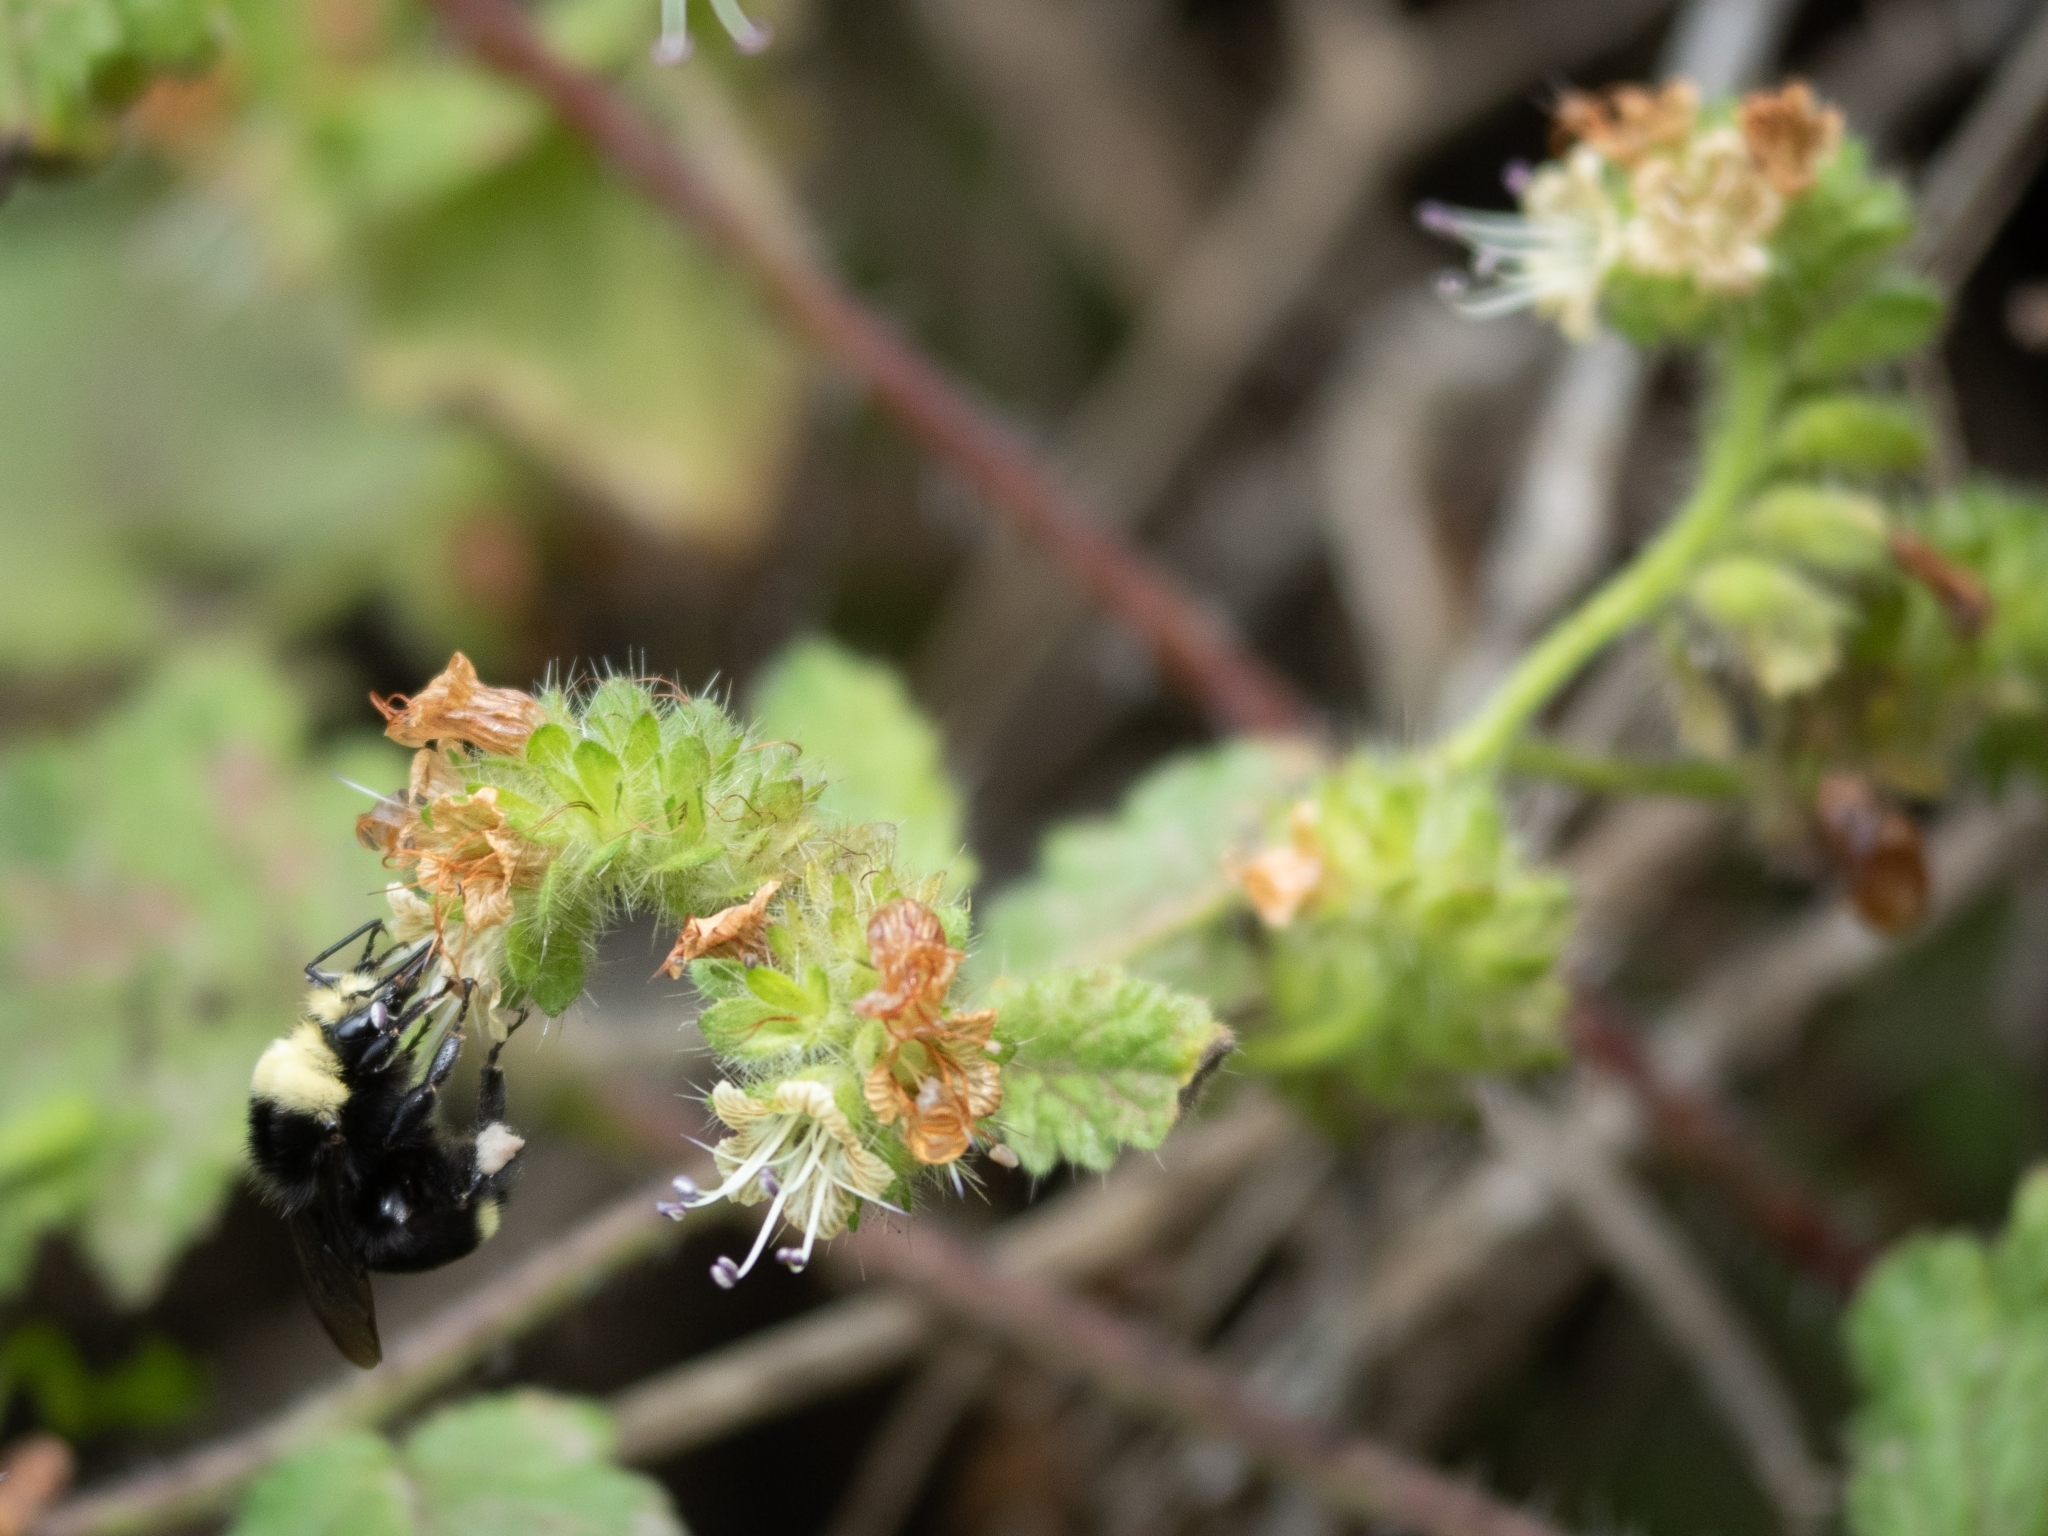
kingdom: Plantae
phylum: Tracheophyta
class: Magnoliopsida
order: Boraginales
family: Hydrophyllaceae
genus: Phacelia
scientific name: Phacelia malvifolia
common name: Mallow-leaf phacelia
